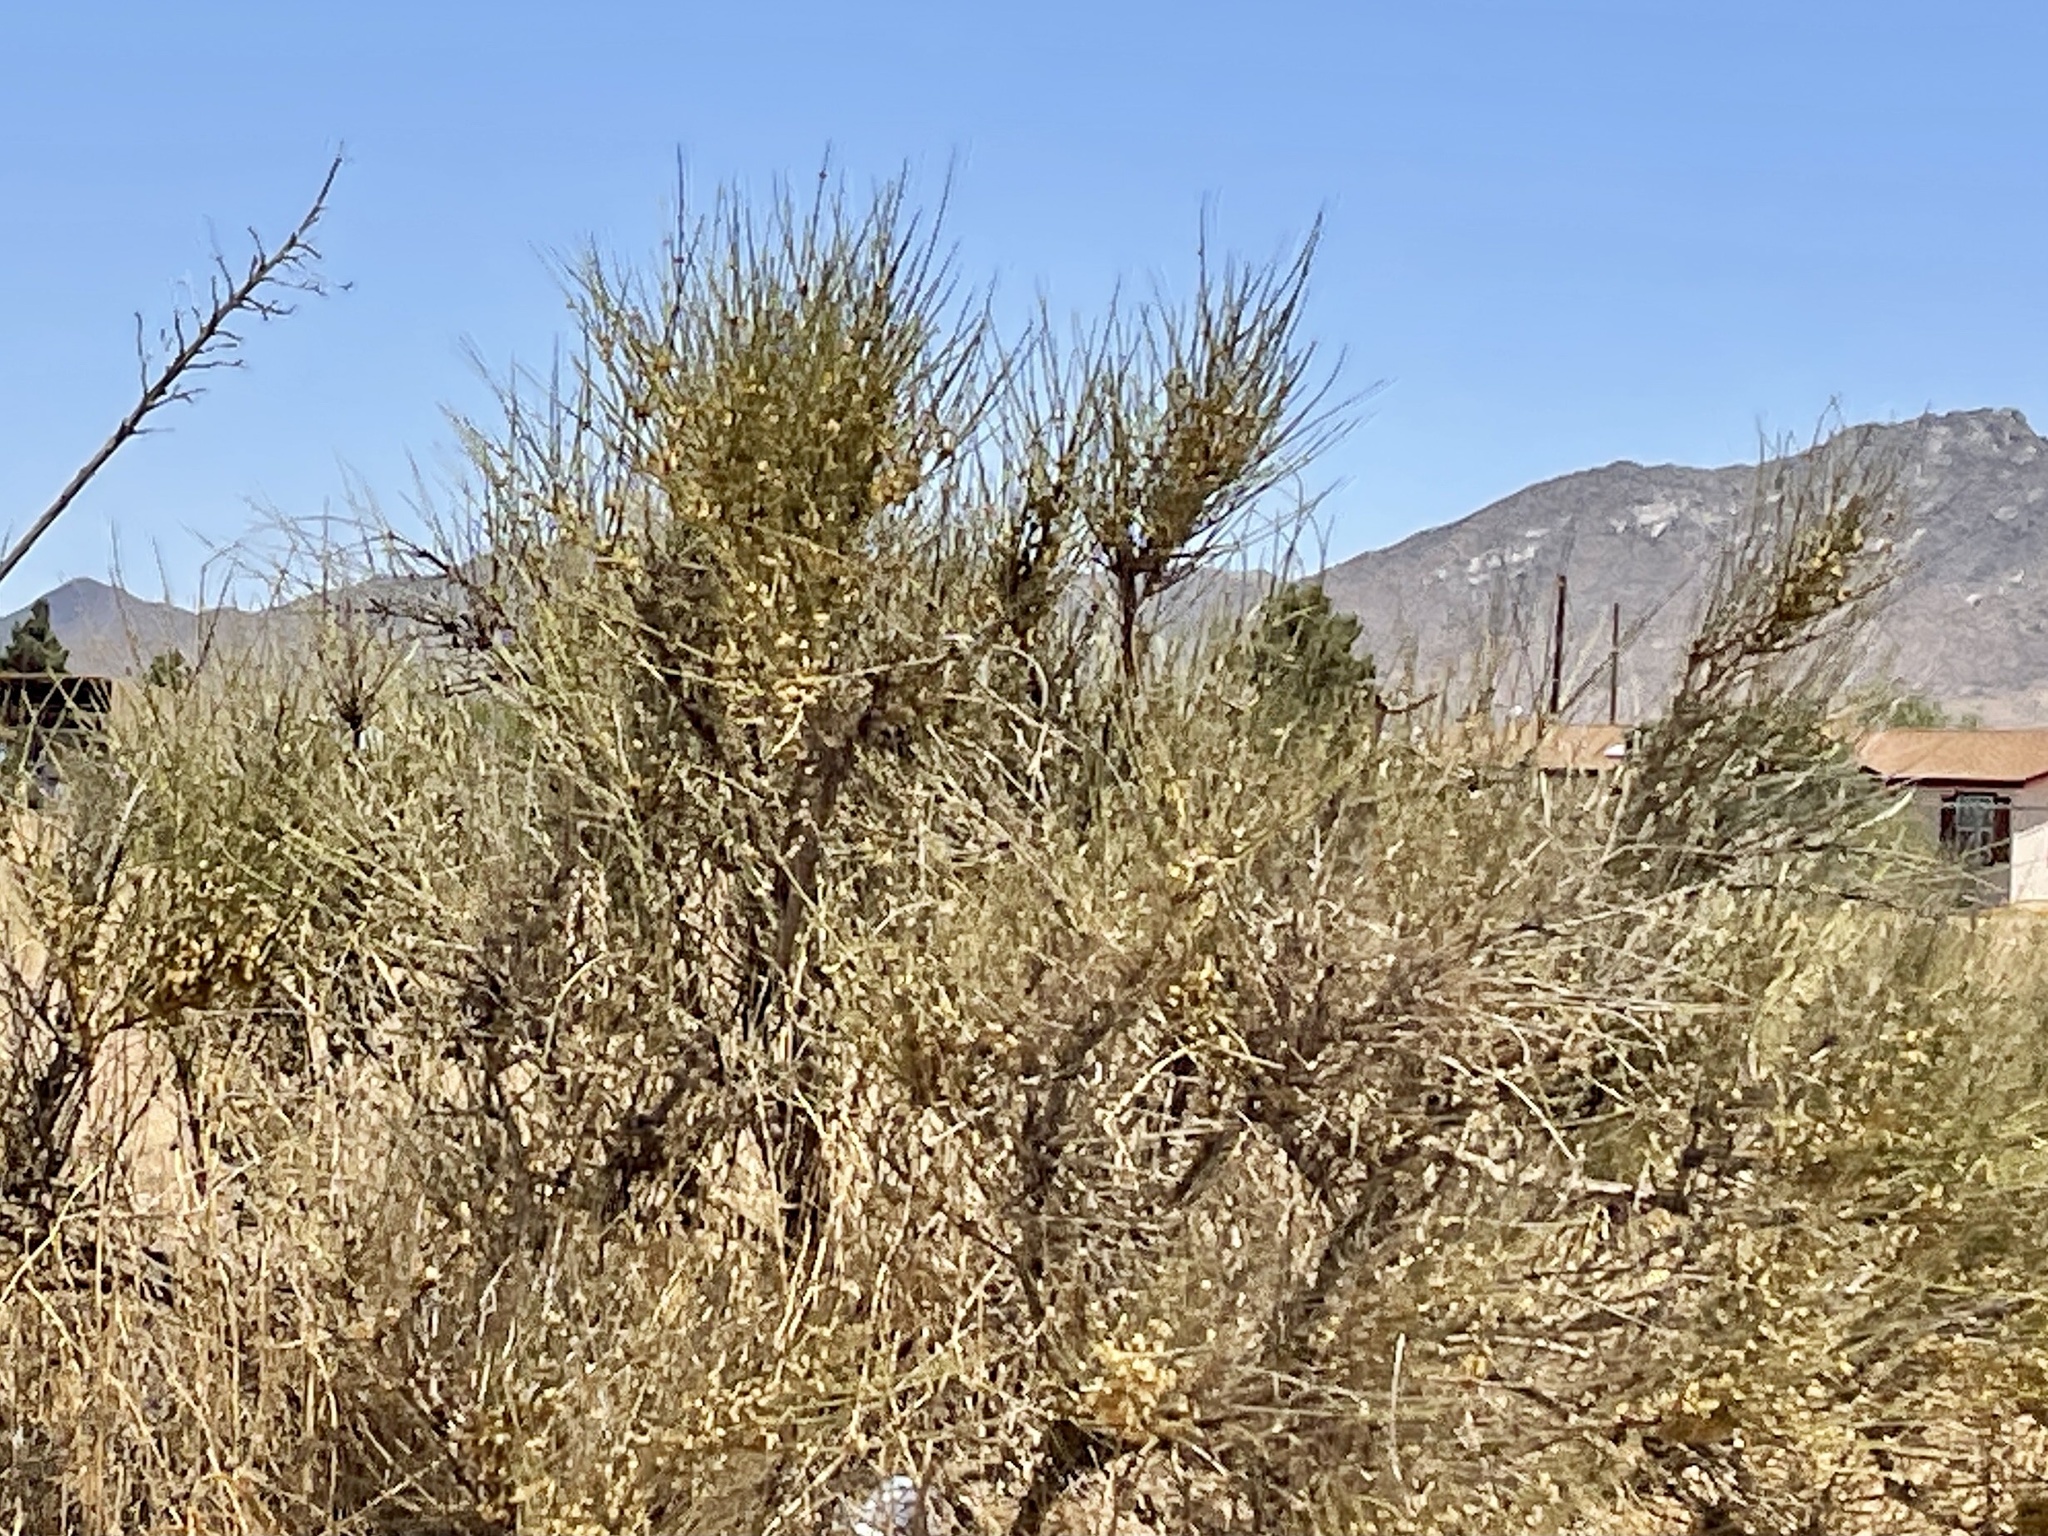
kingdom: Plantae
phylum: Tracheophyta
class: Gnetopsida
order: Ephedrales
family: Ephedraceae
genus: Ephedra
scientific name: Ephedra trifurca
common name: Mexican-tea
